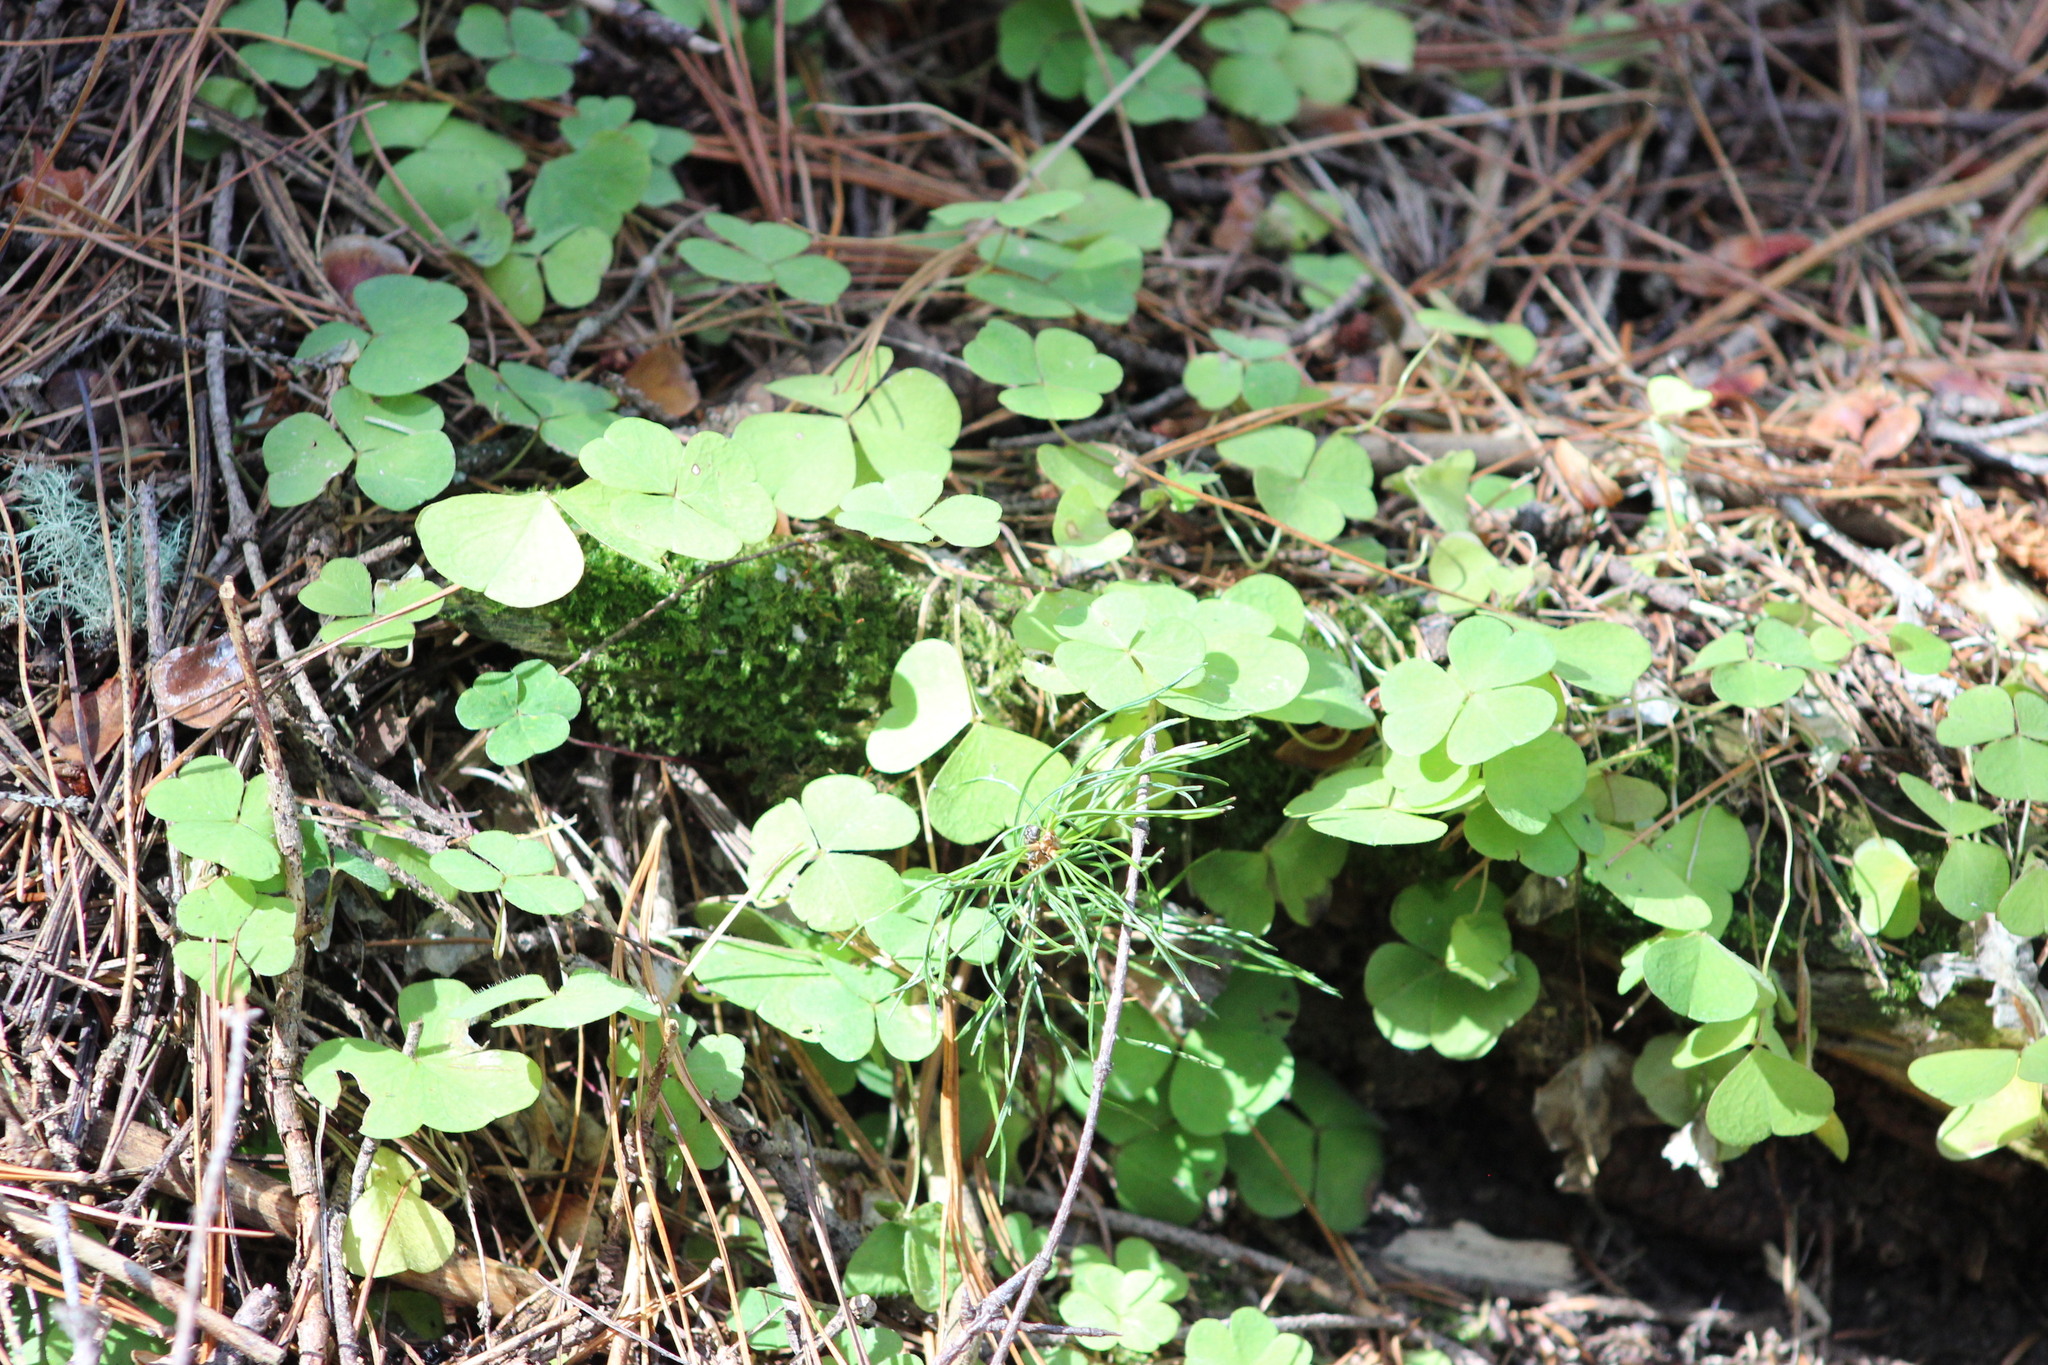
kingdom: Plantae
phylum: Tracheophyta
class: Magnoliopsida
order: Oxalidales
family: Oxalidaceae
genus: Oxalis
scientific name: Oxalis acetosella
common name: Wood-sorrel
